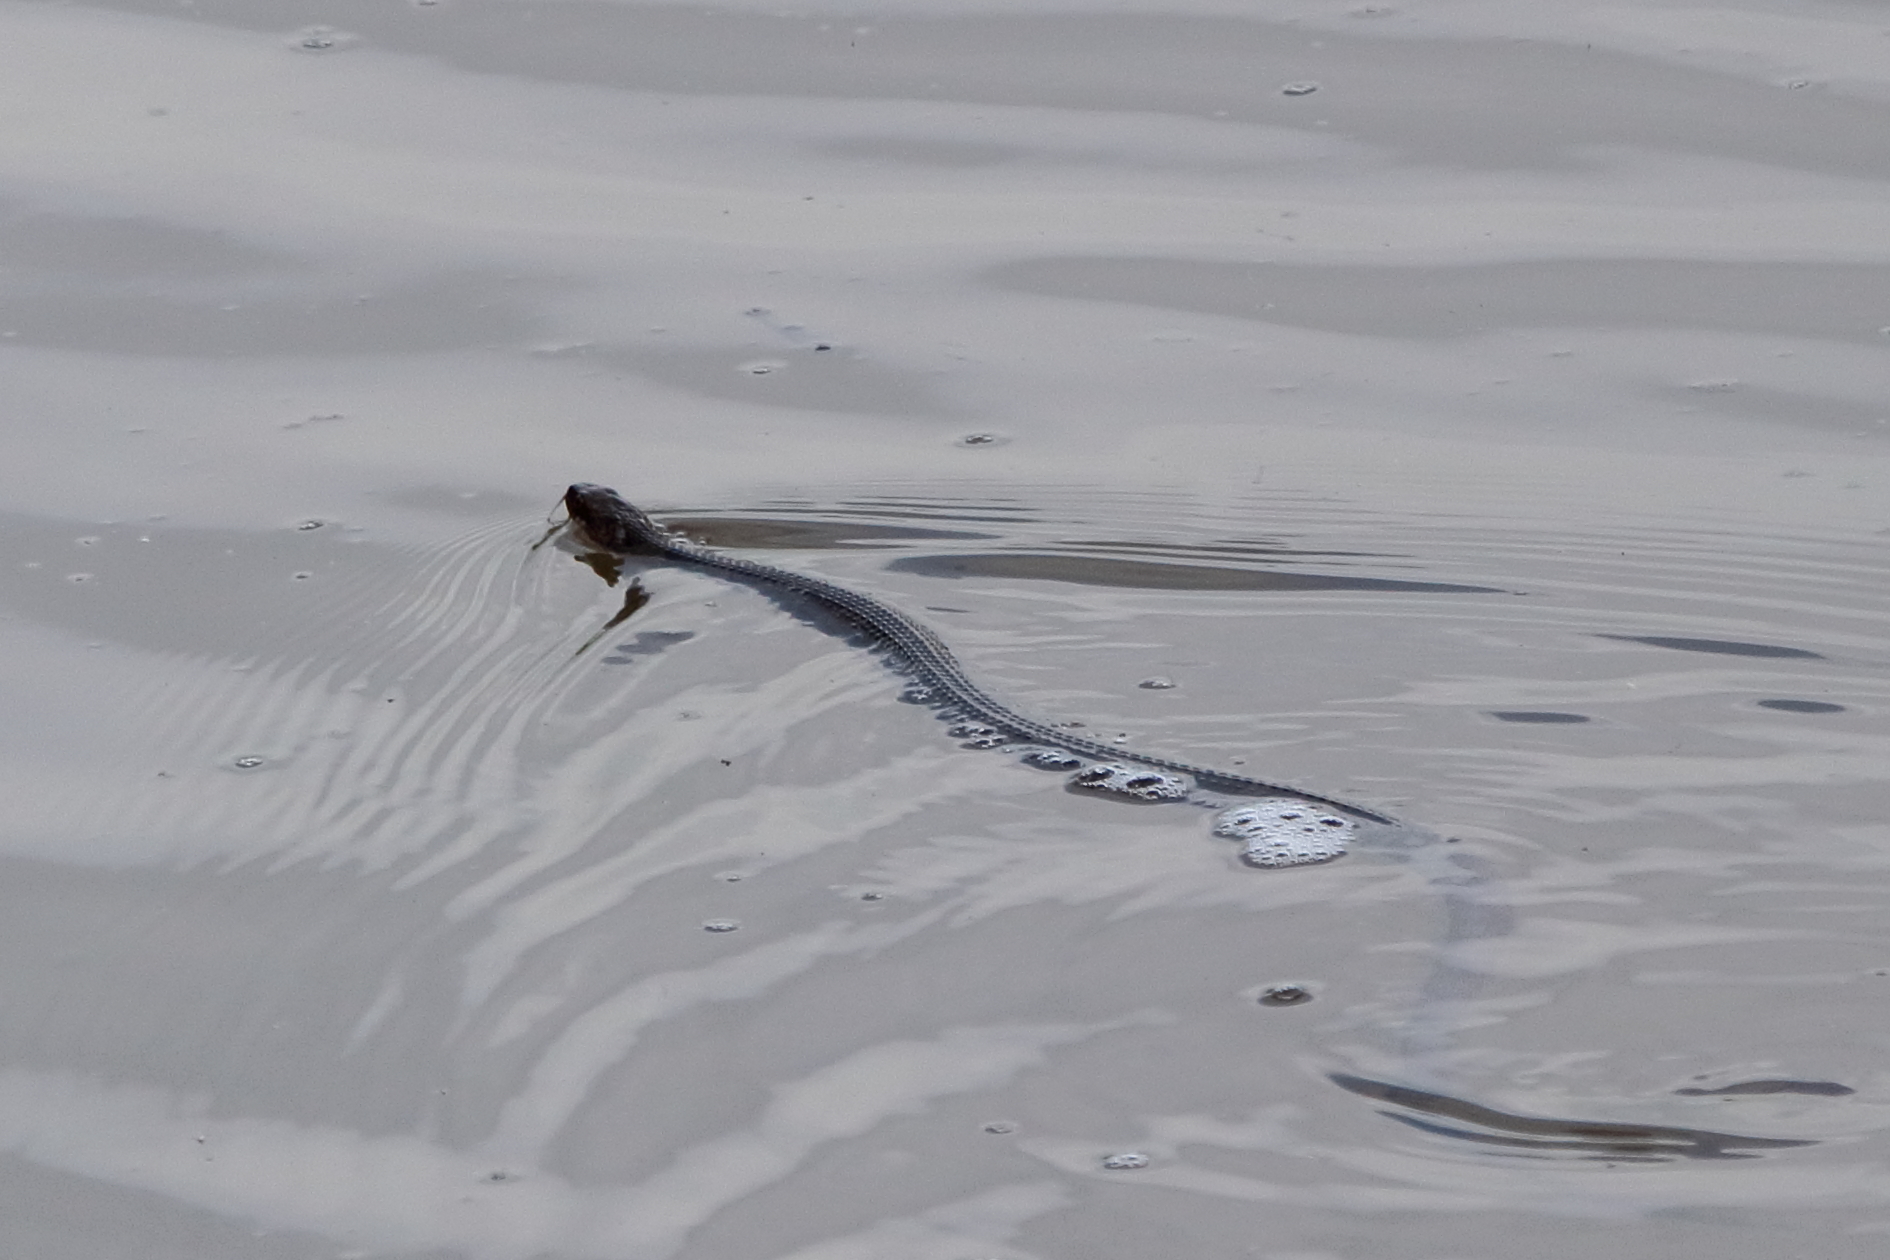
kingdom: Animalia
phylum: Chordata
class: Squamata
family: Colubridae
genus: Nerodia
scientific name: Nerodia erythrogaster
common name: Plainbelly water snake
